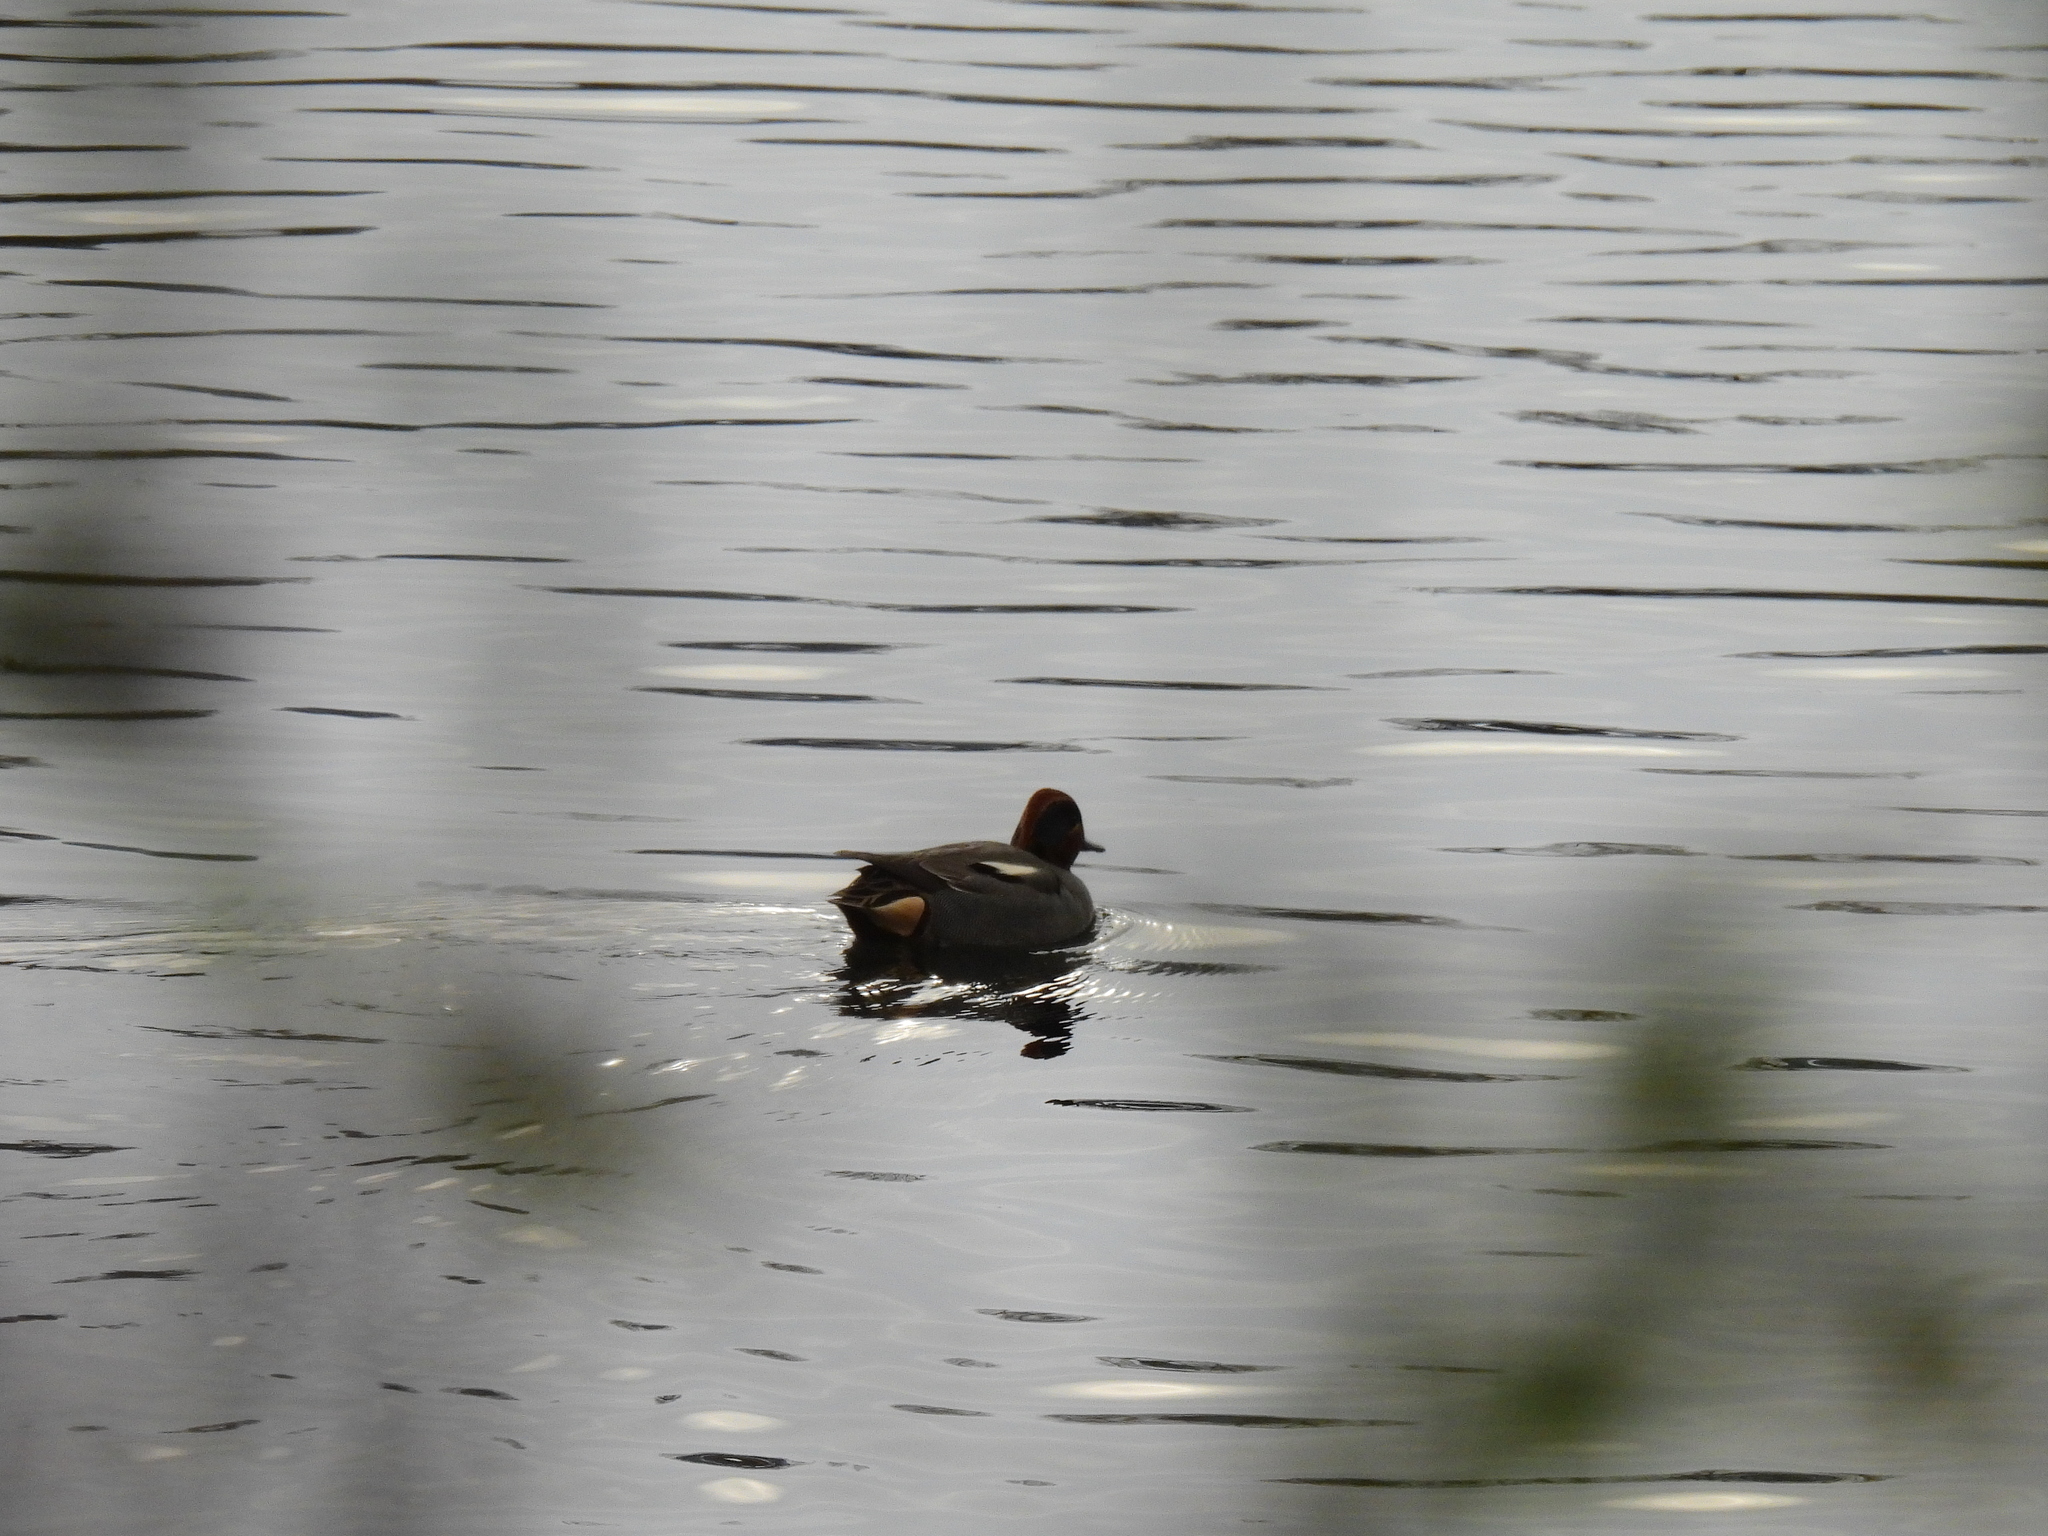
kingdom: Animalia
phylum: Chordata
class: Aves
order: Anseriformes
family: Anatidae
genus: Anas
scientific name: Anas crecca
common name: Eurasian teal
